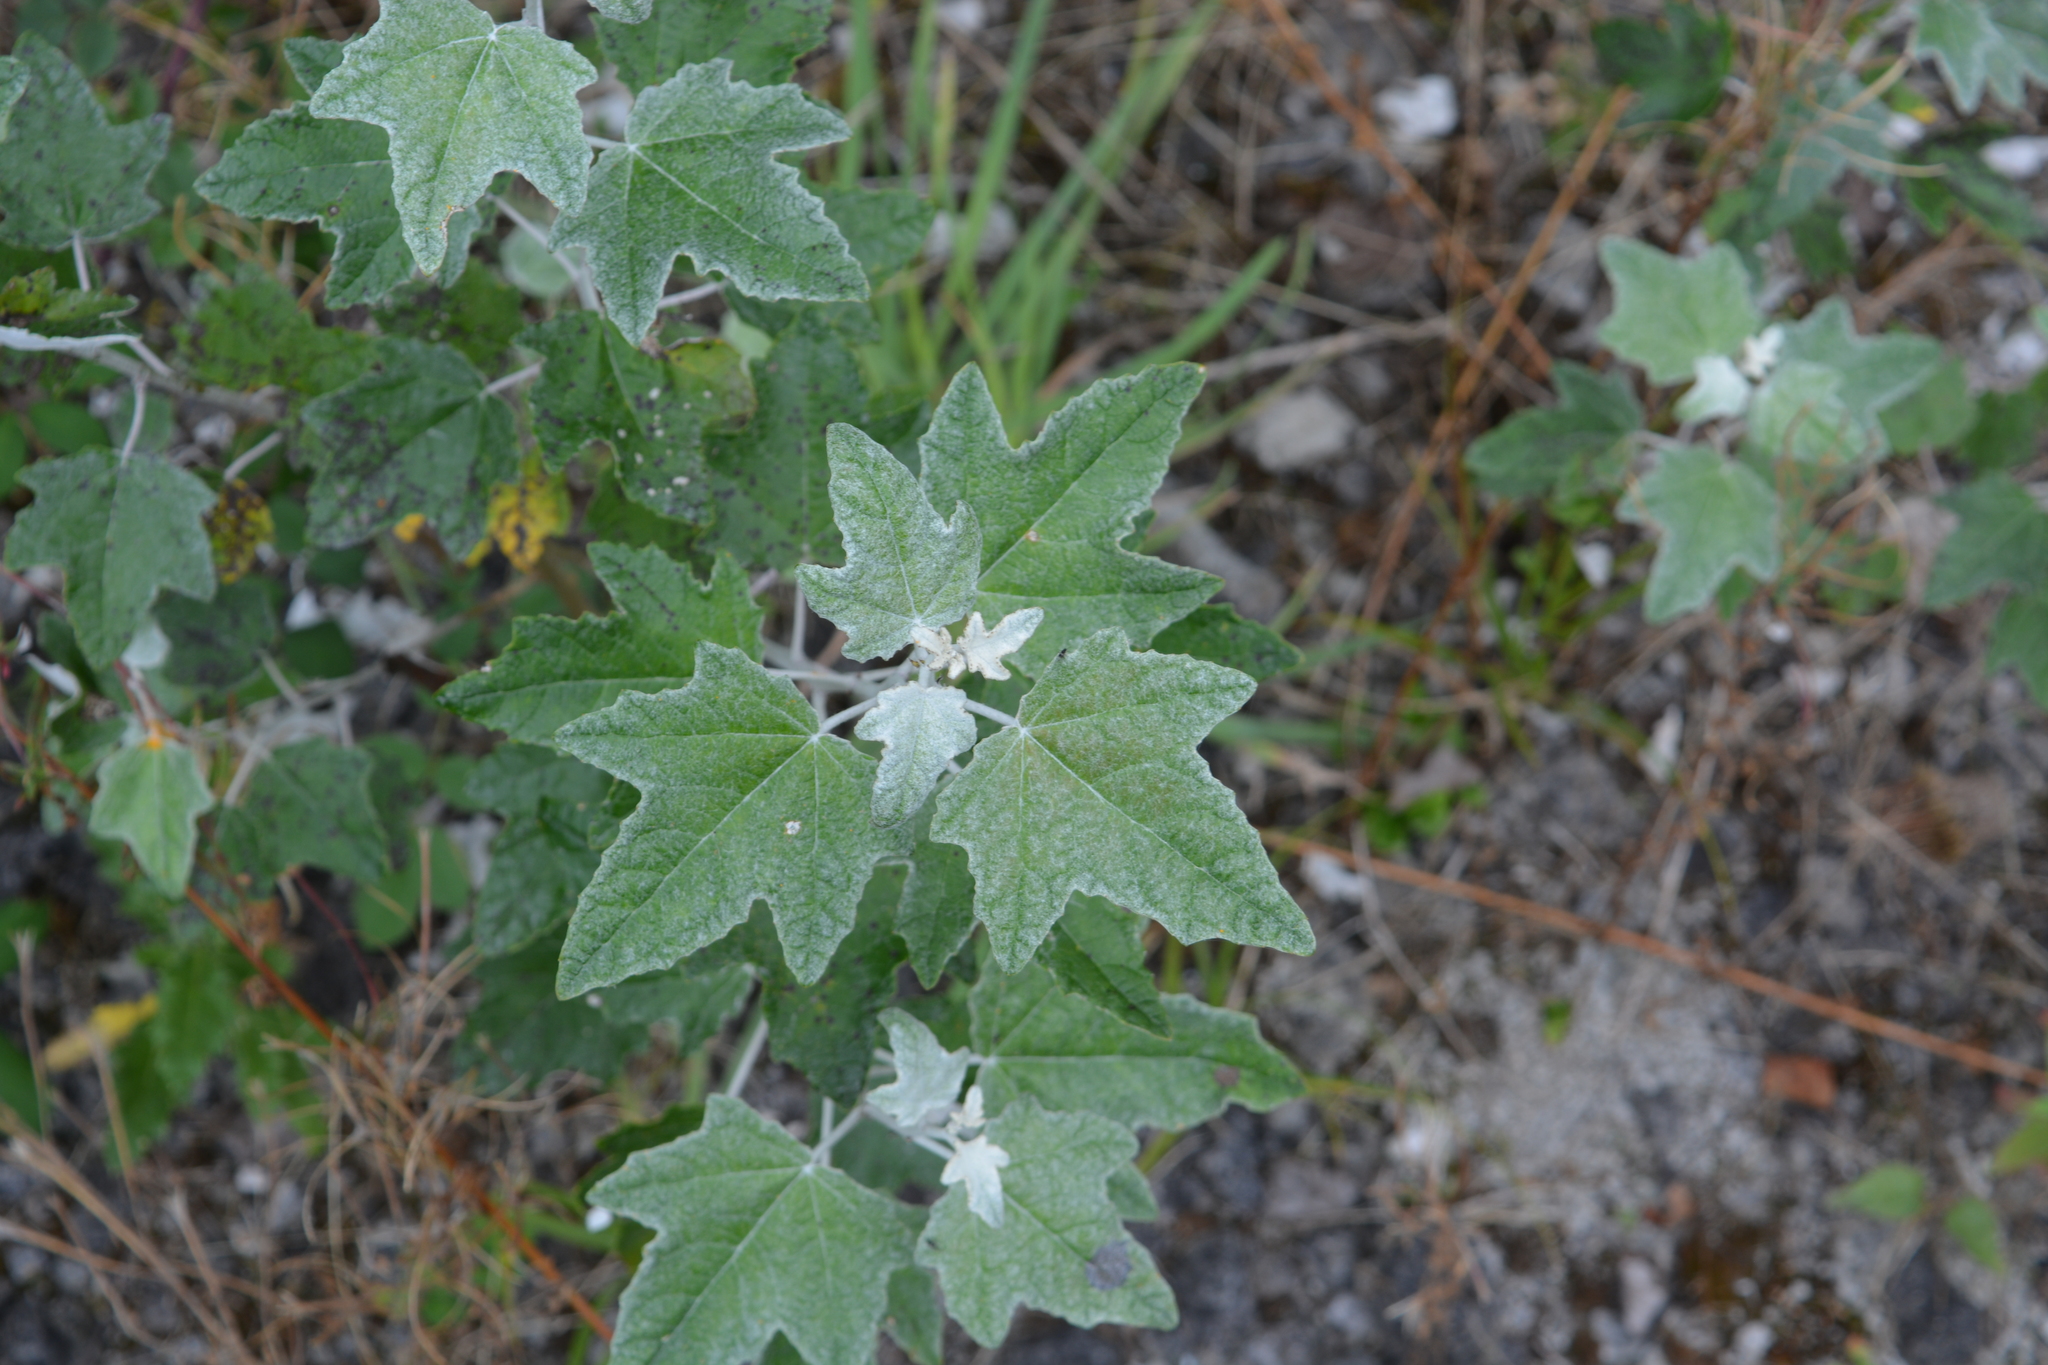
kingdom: Plantae
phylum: Tracheophyta
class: Magnoliopsida
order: Malpighiales
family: Salicaceae
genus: Populus
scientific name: Populus alba
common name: White poplar
